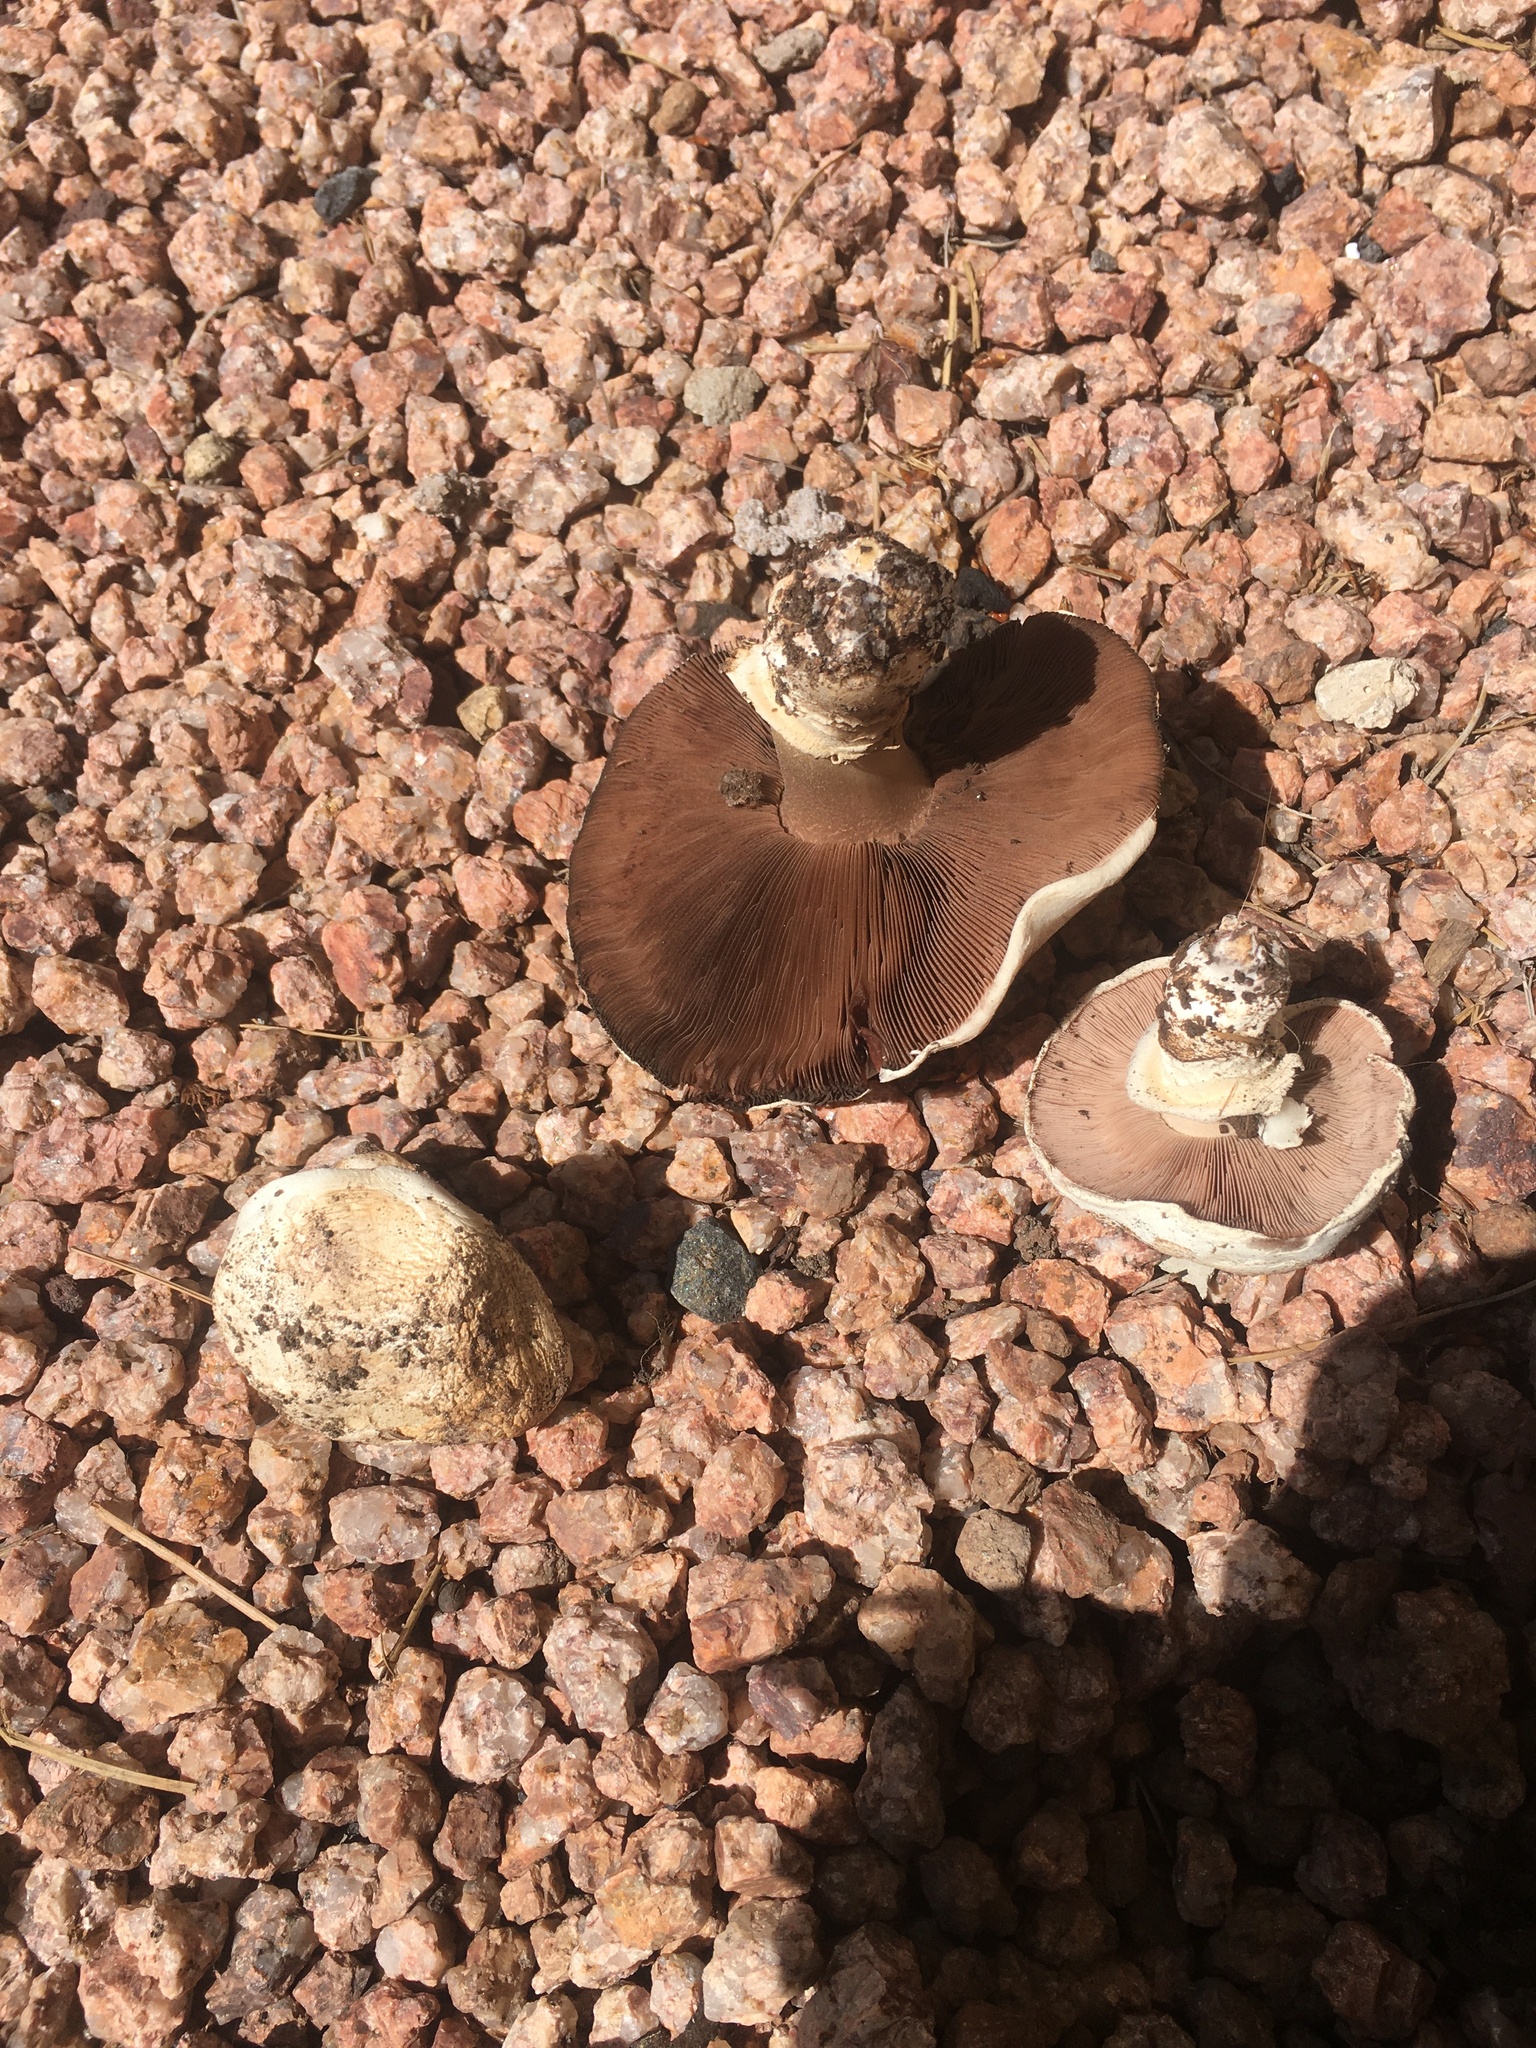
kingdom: Fungi
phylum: Basidiomycota
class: Agaricomycetes
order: Agaricales
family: Agaricaceae
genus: Agaricus
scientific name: Agaricus bitorquis
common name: Pavement mushroom
